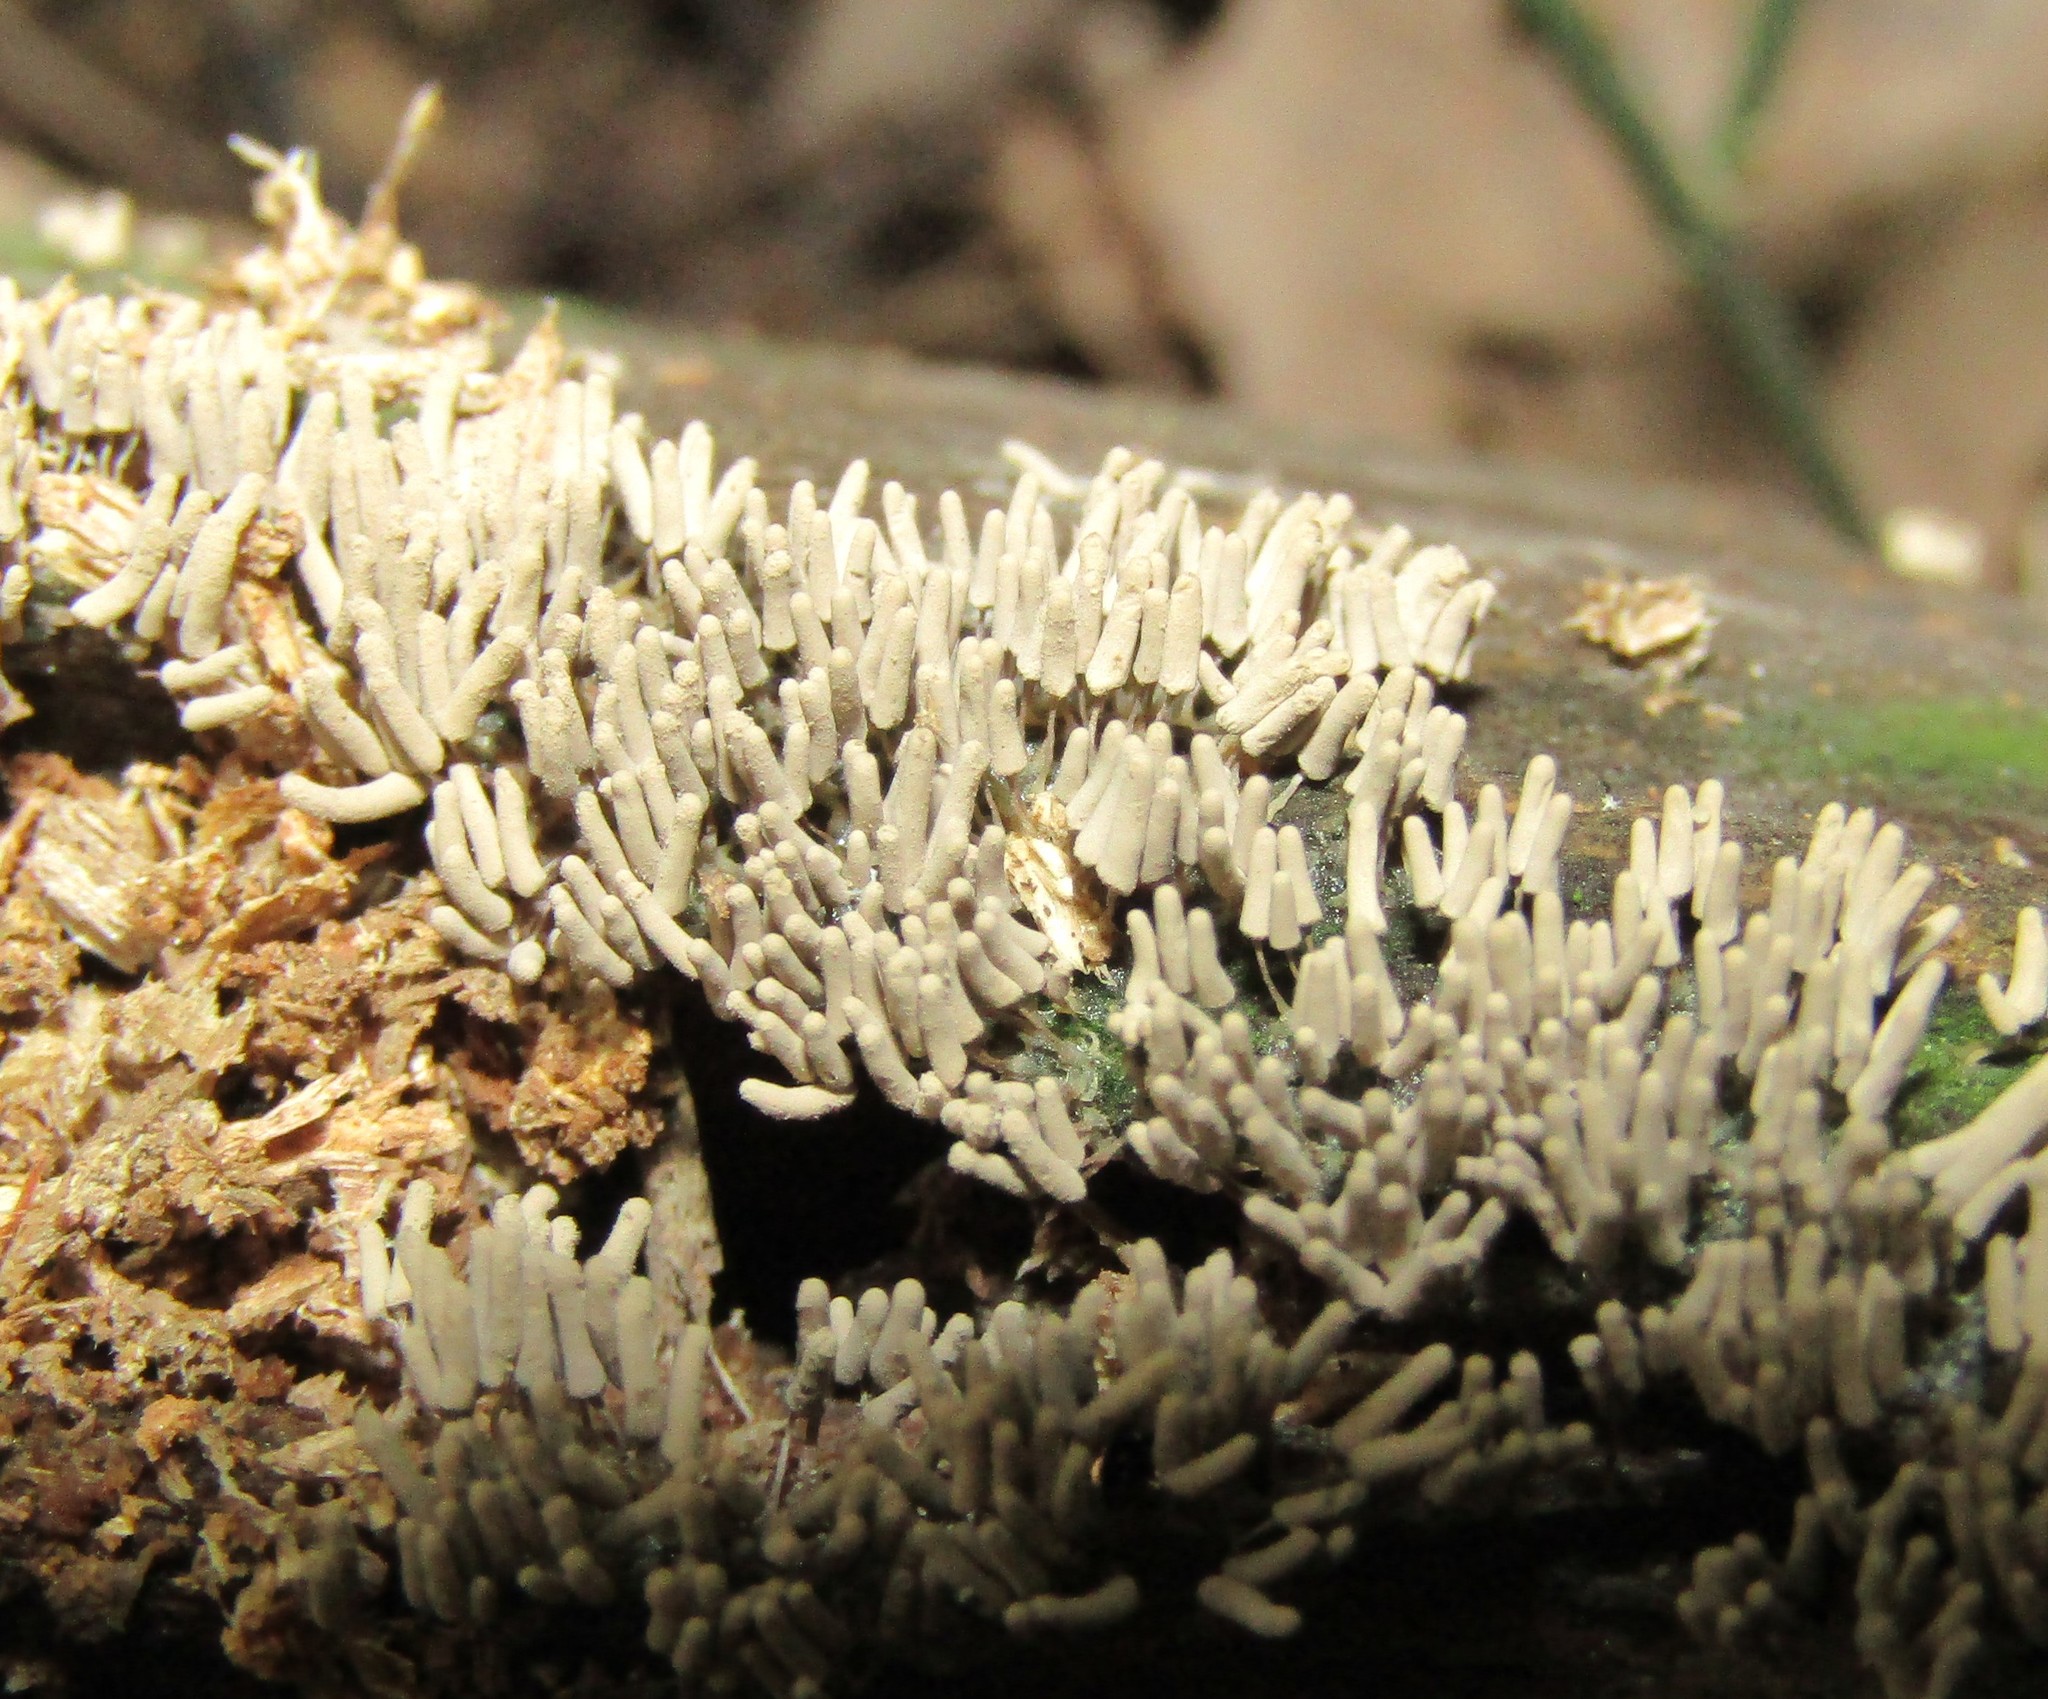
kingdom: Protozoa
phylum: Mycetozoa
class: Myxomycetes
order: Trichiales
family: Arcyriaceae
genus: Arcyria
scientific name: Arcyria cinerea
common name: White carnival candy slime mold
